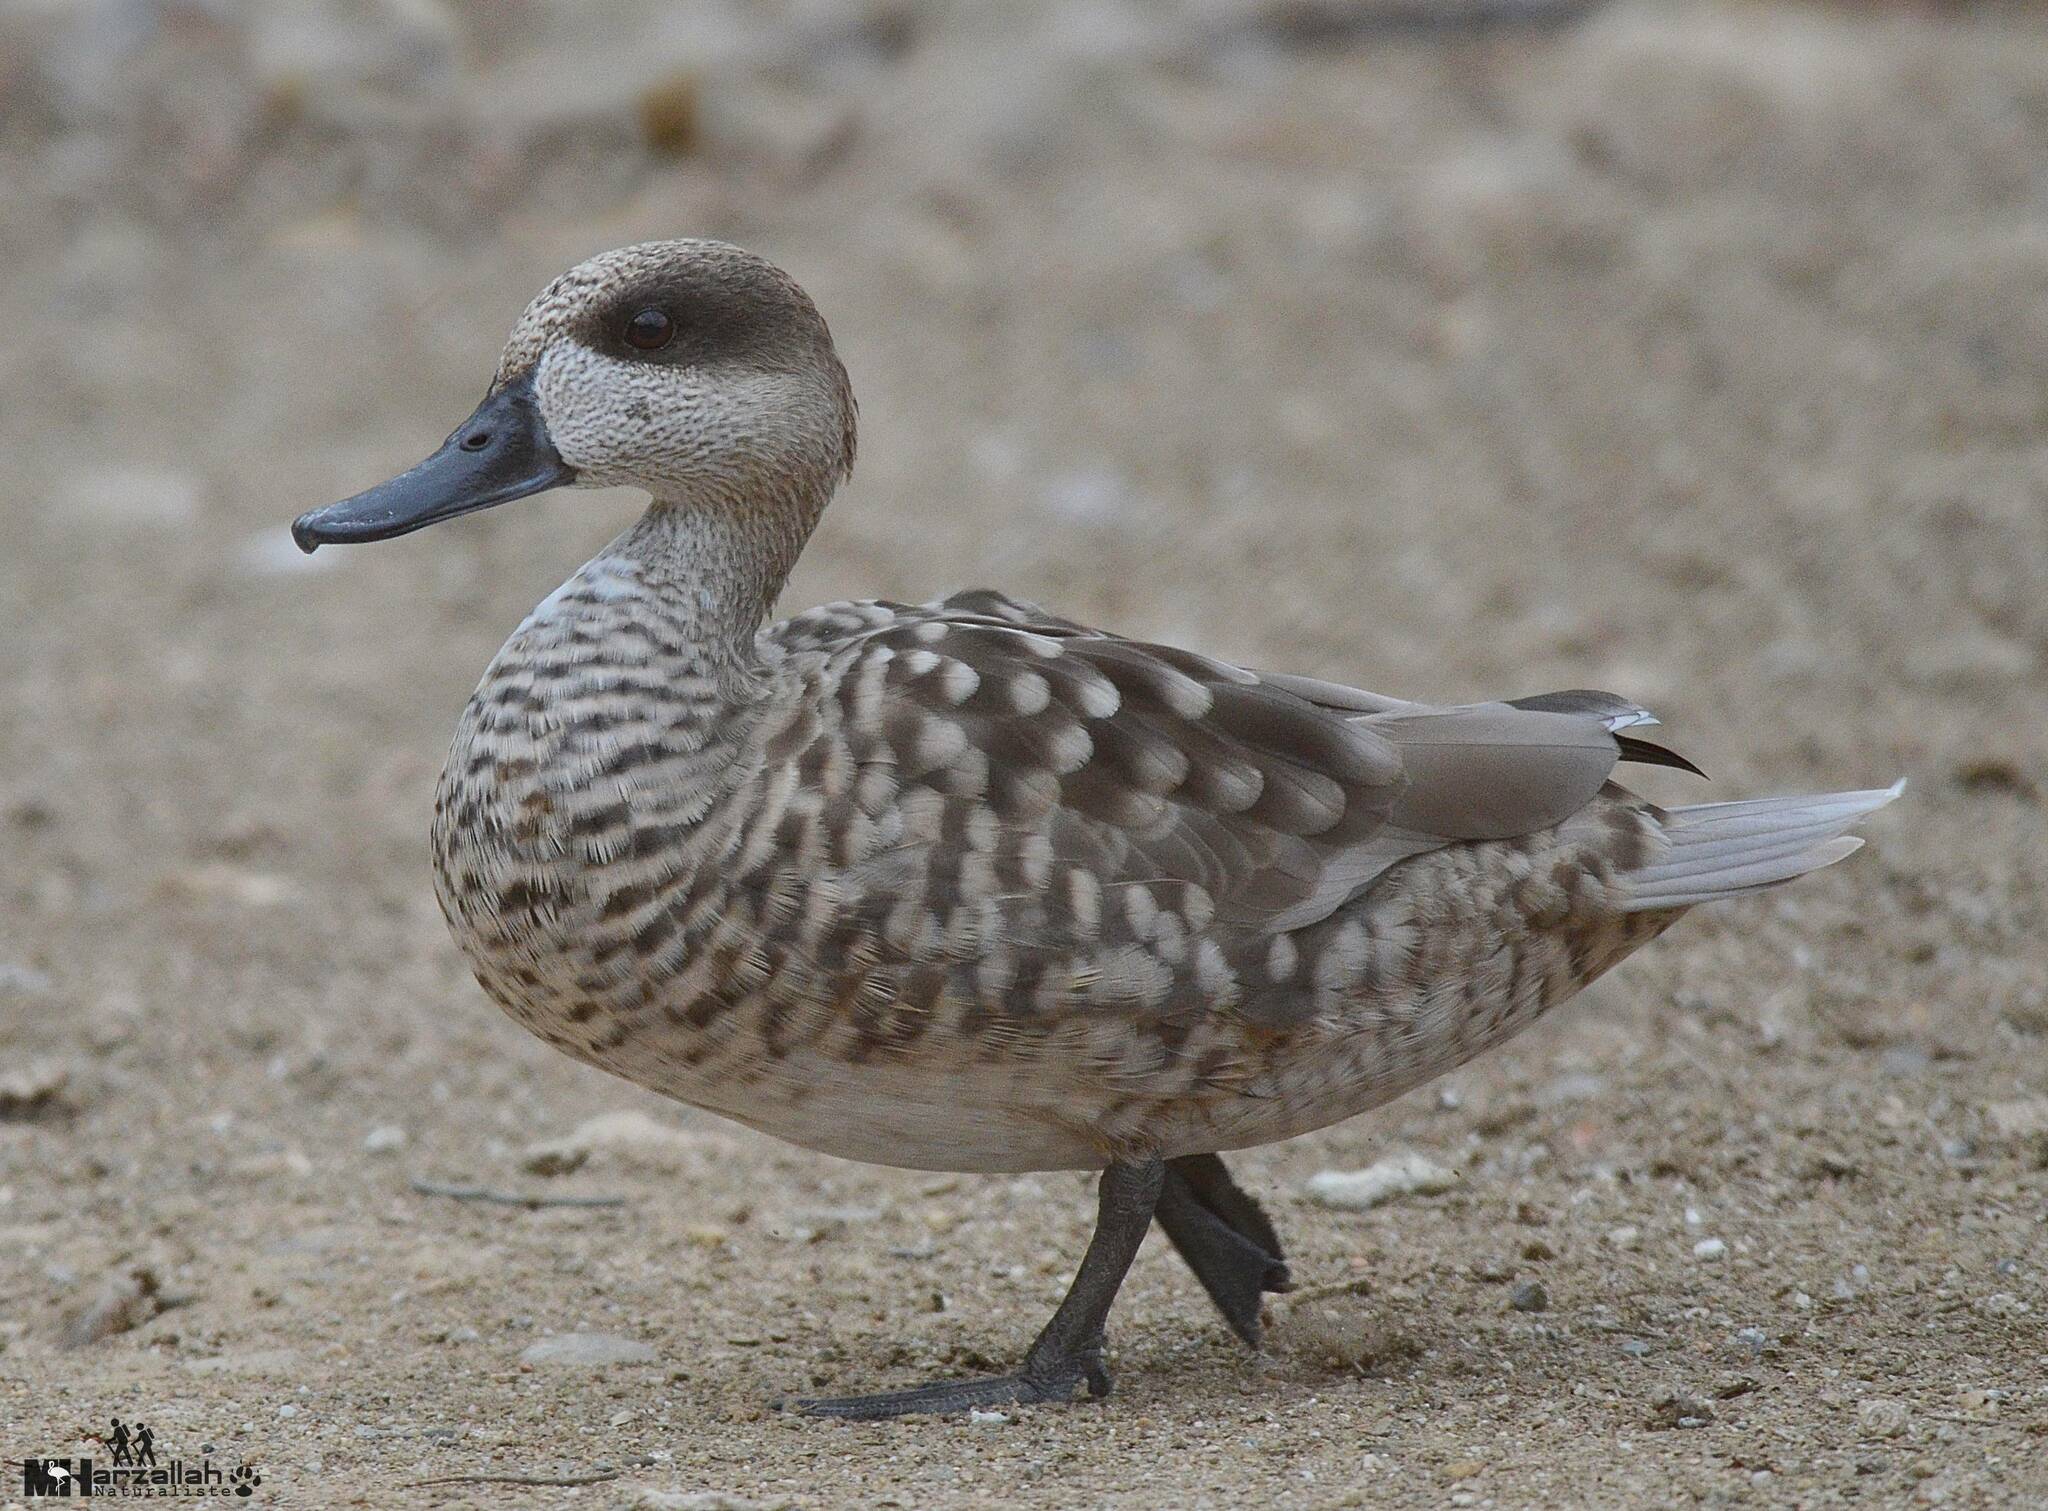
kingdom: Animalia
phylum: Chordata
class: Aves
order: Anseriformes
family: Anatidae
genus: Marmaronetta
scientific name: Marmaronetta angustirostris
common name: Marbled duck
